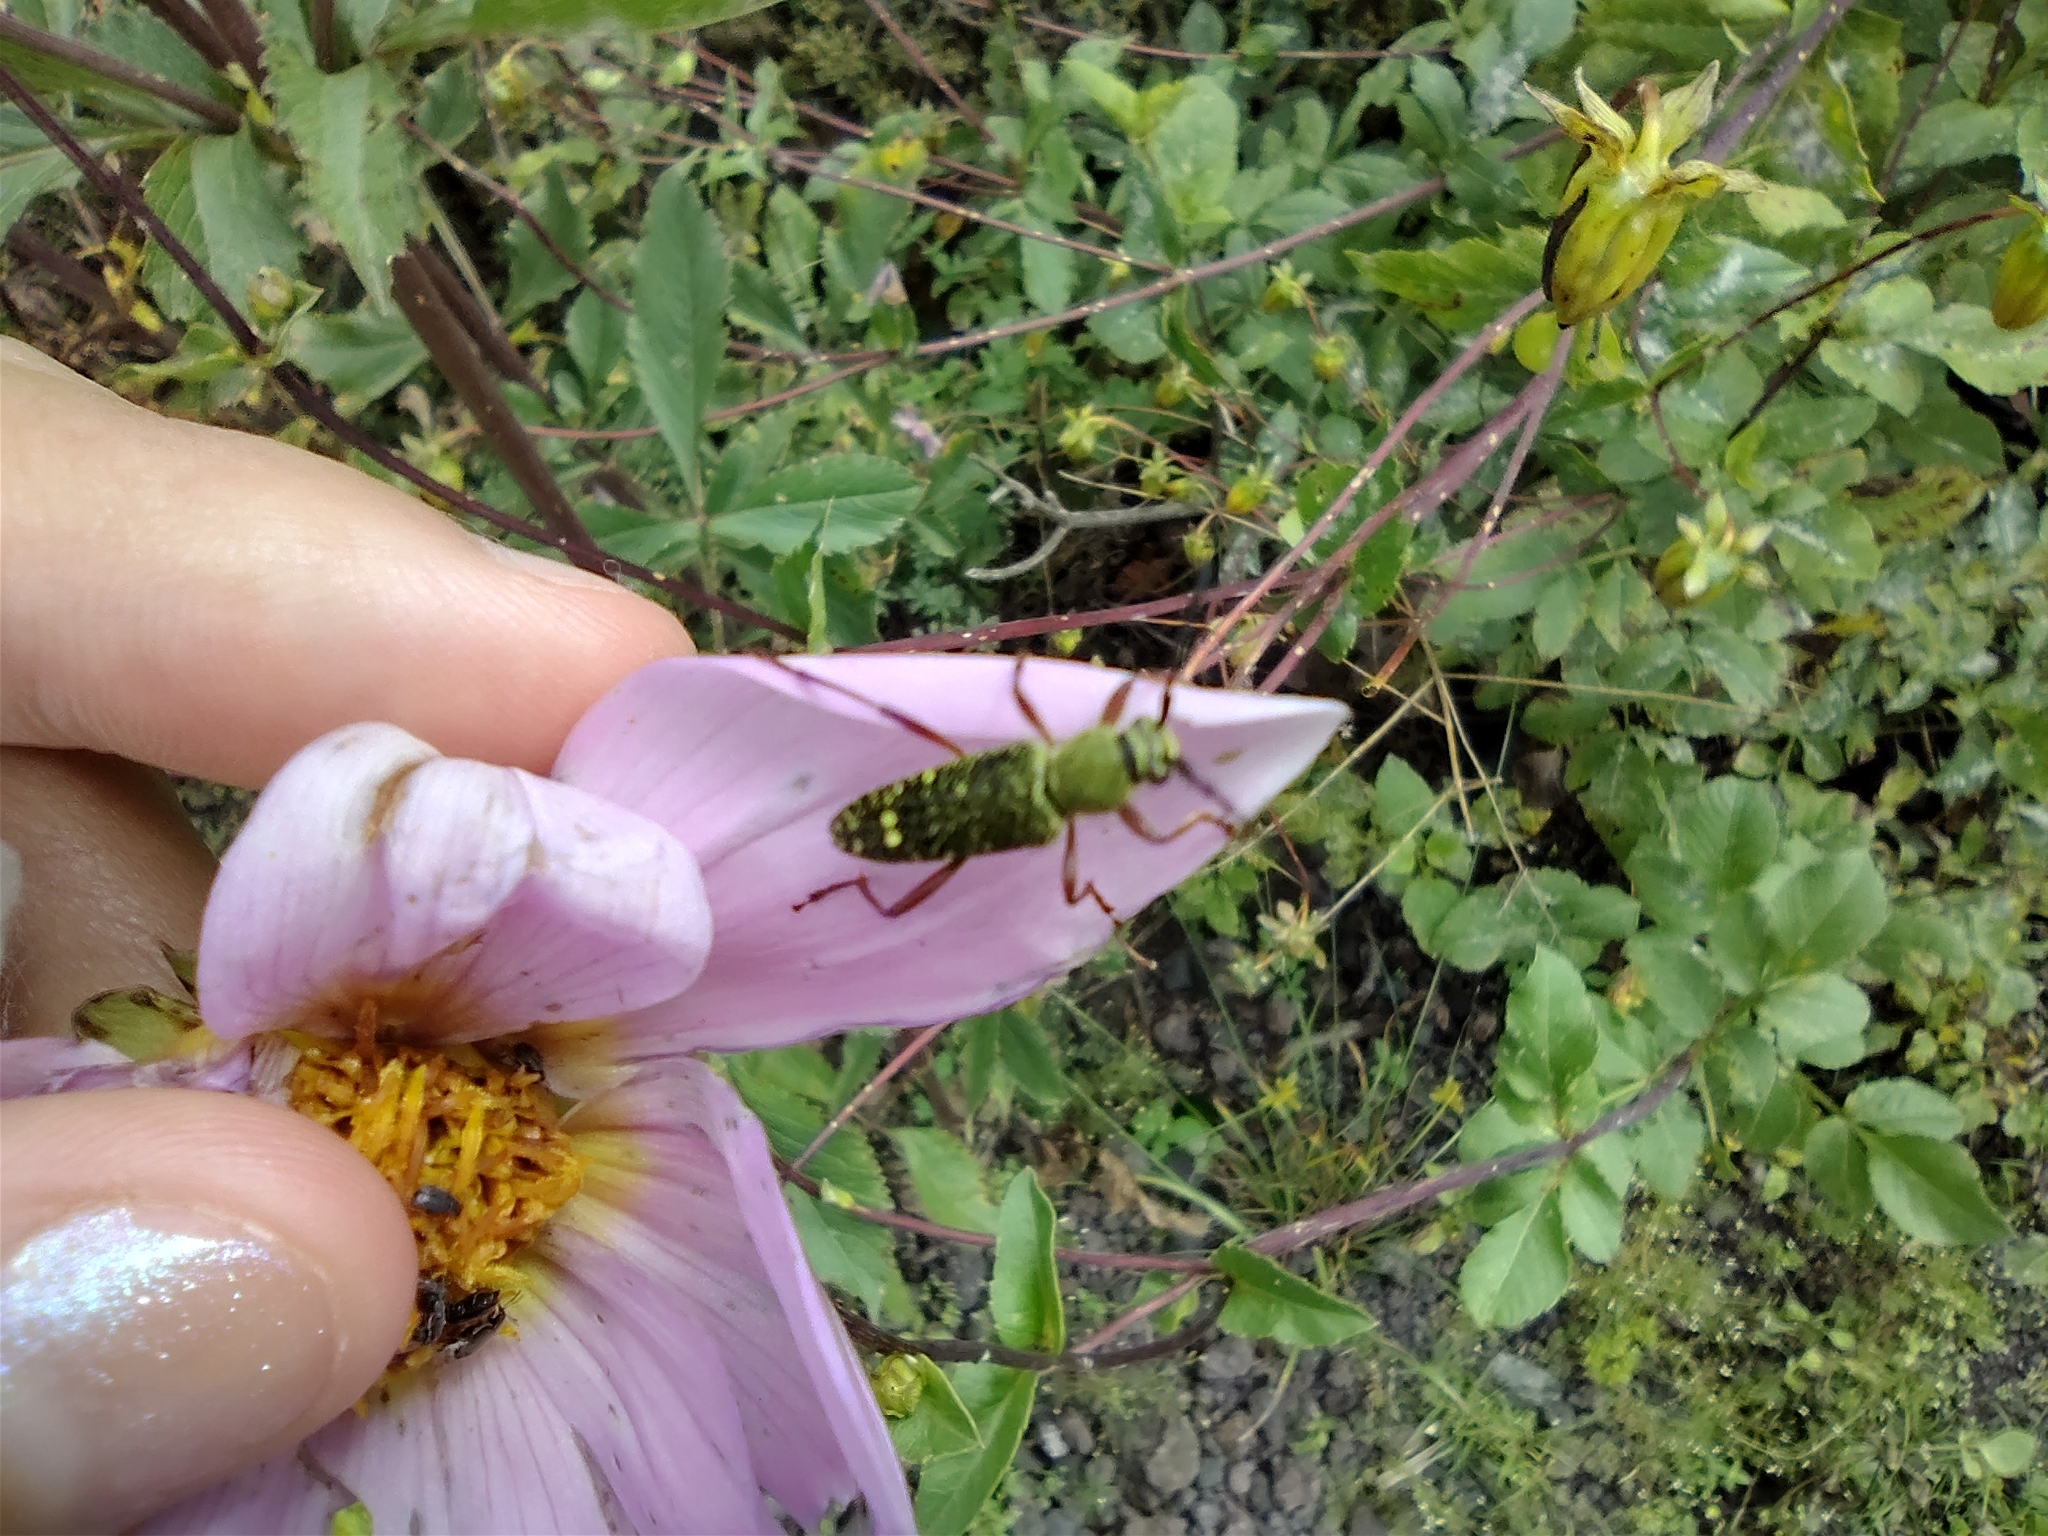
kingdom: Animalia
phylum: Arthropoda
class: Insecta
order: Coleoptera
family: Cerambycidae
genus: Ochraethes
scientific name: Ochraethes
